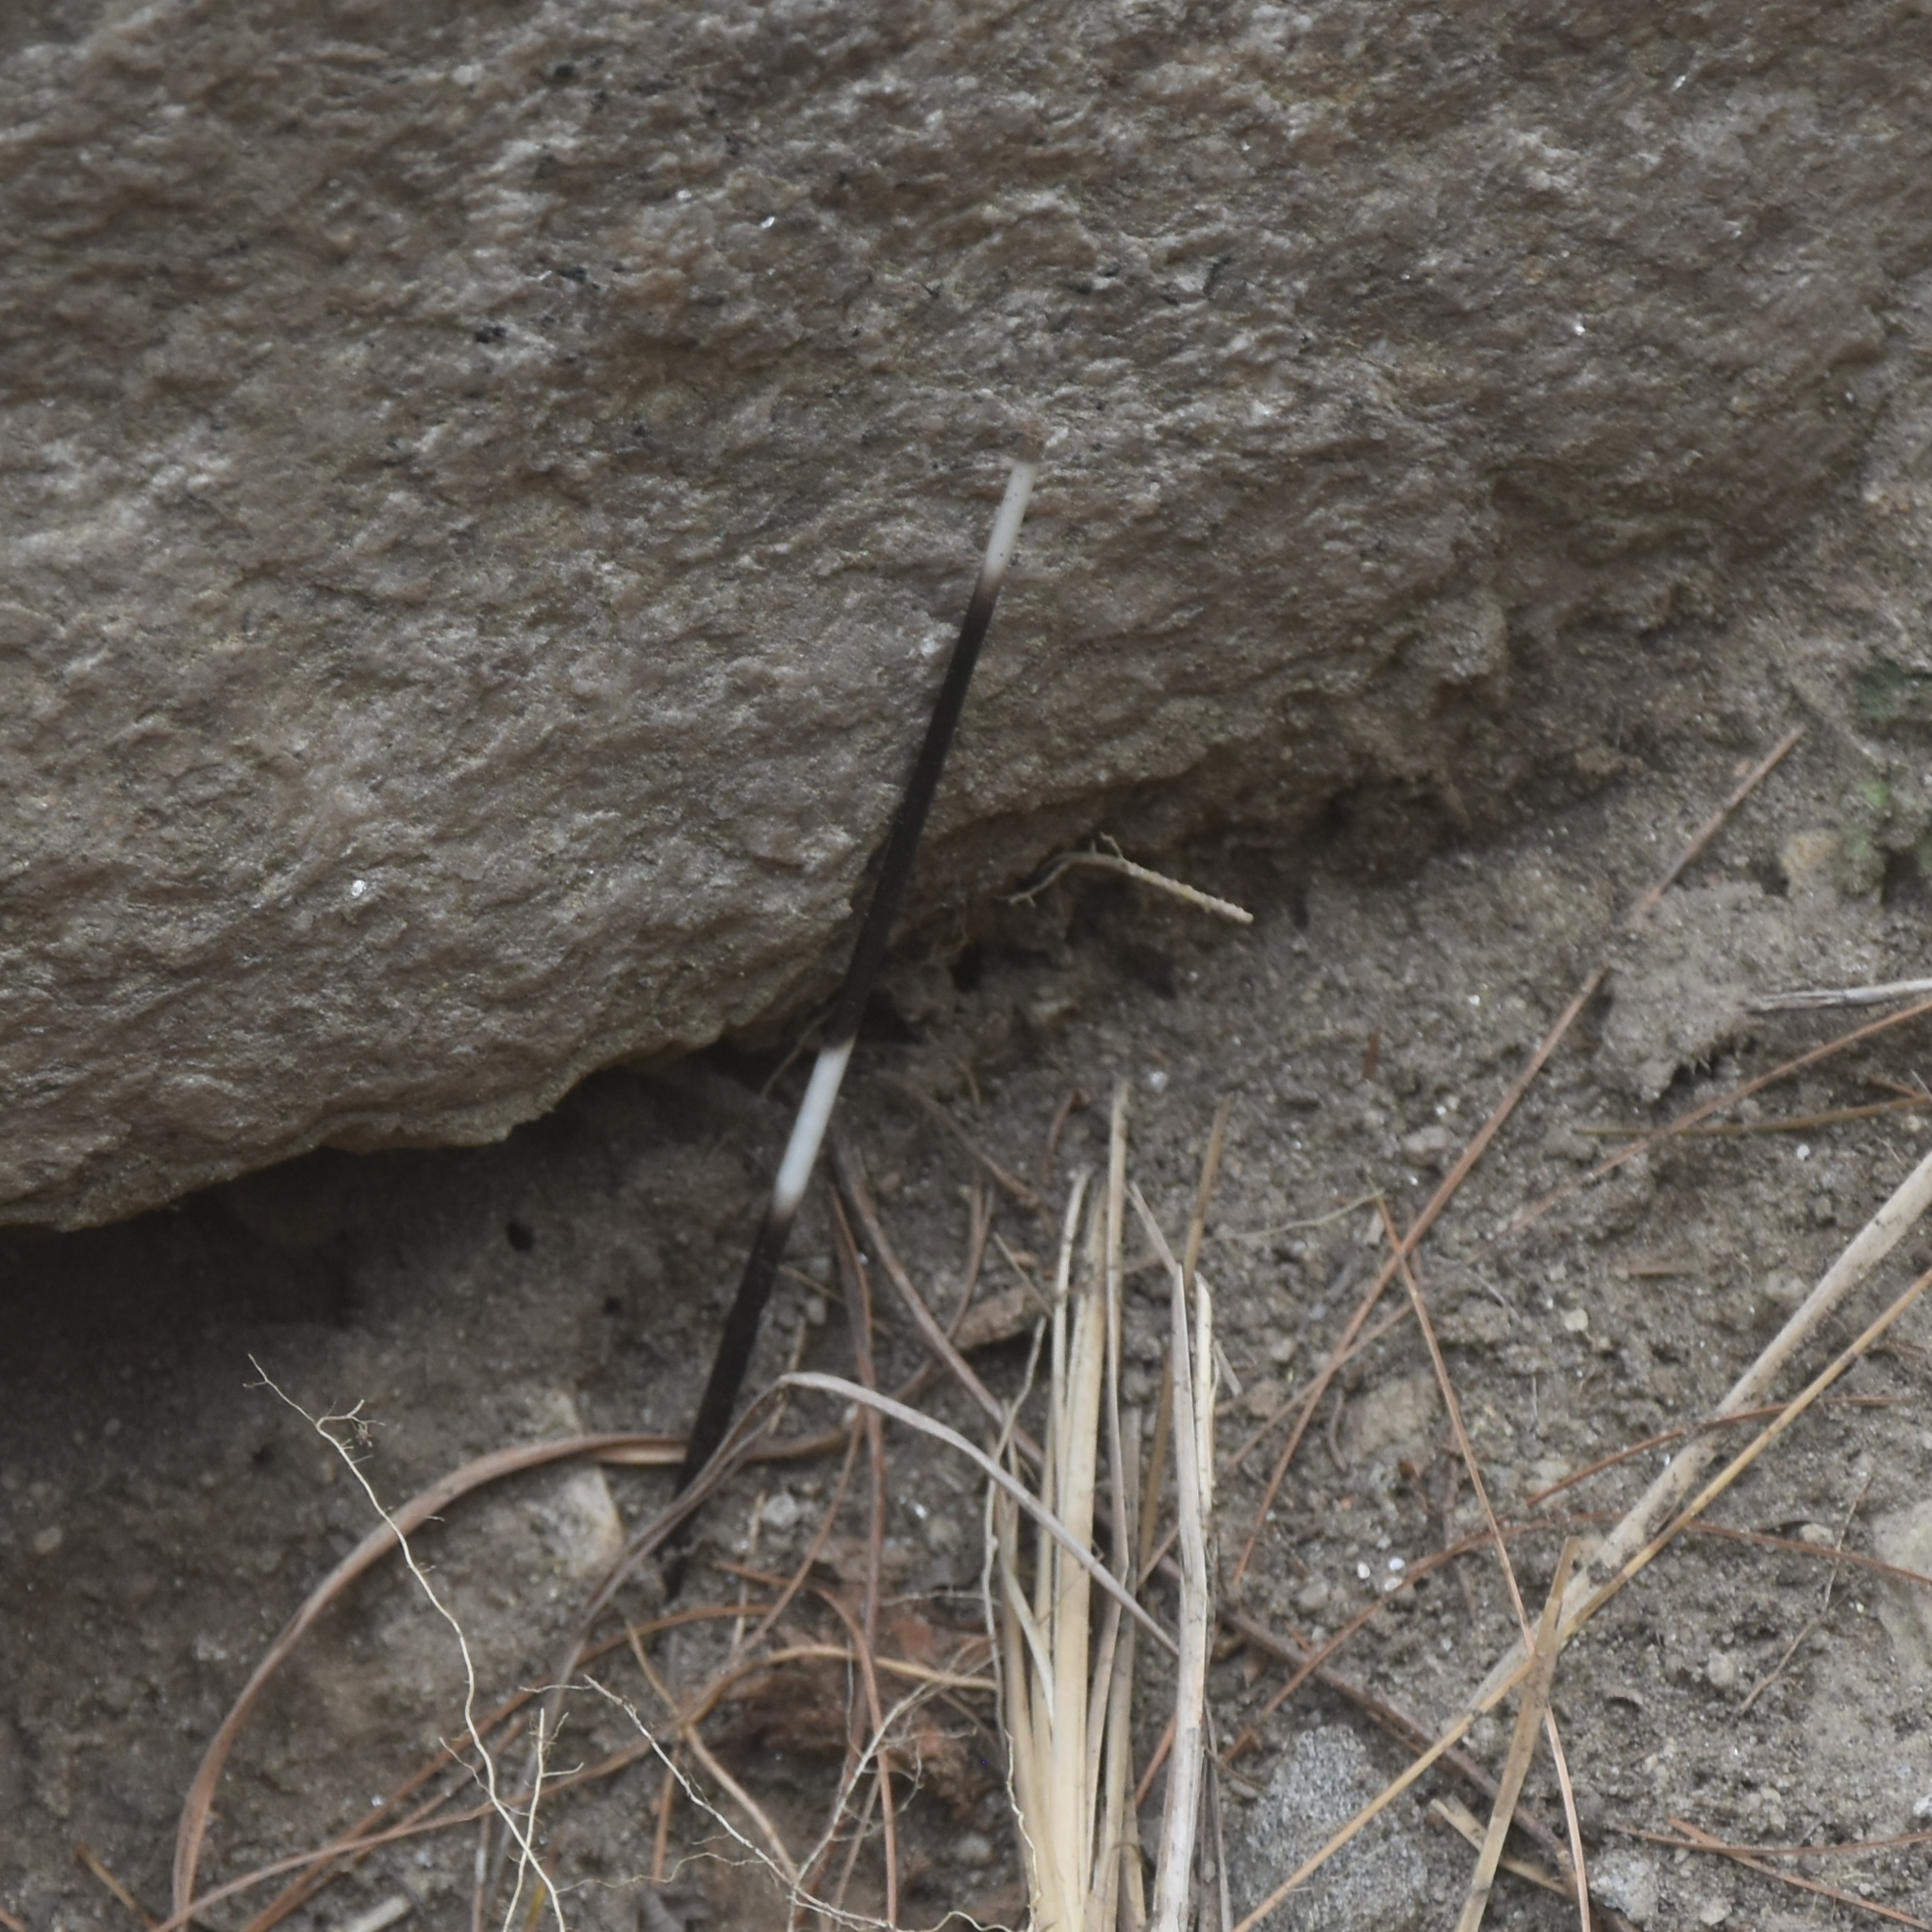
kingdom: Animalia
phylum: Chordata
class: Mammalia
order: Rodentia
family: Hystricidae
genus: Hystrix
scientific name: Hystrix indica
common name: Indian crested porcupine
